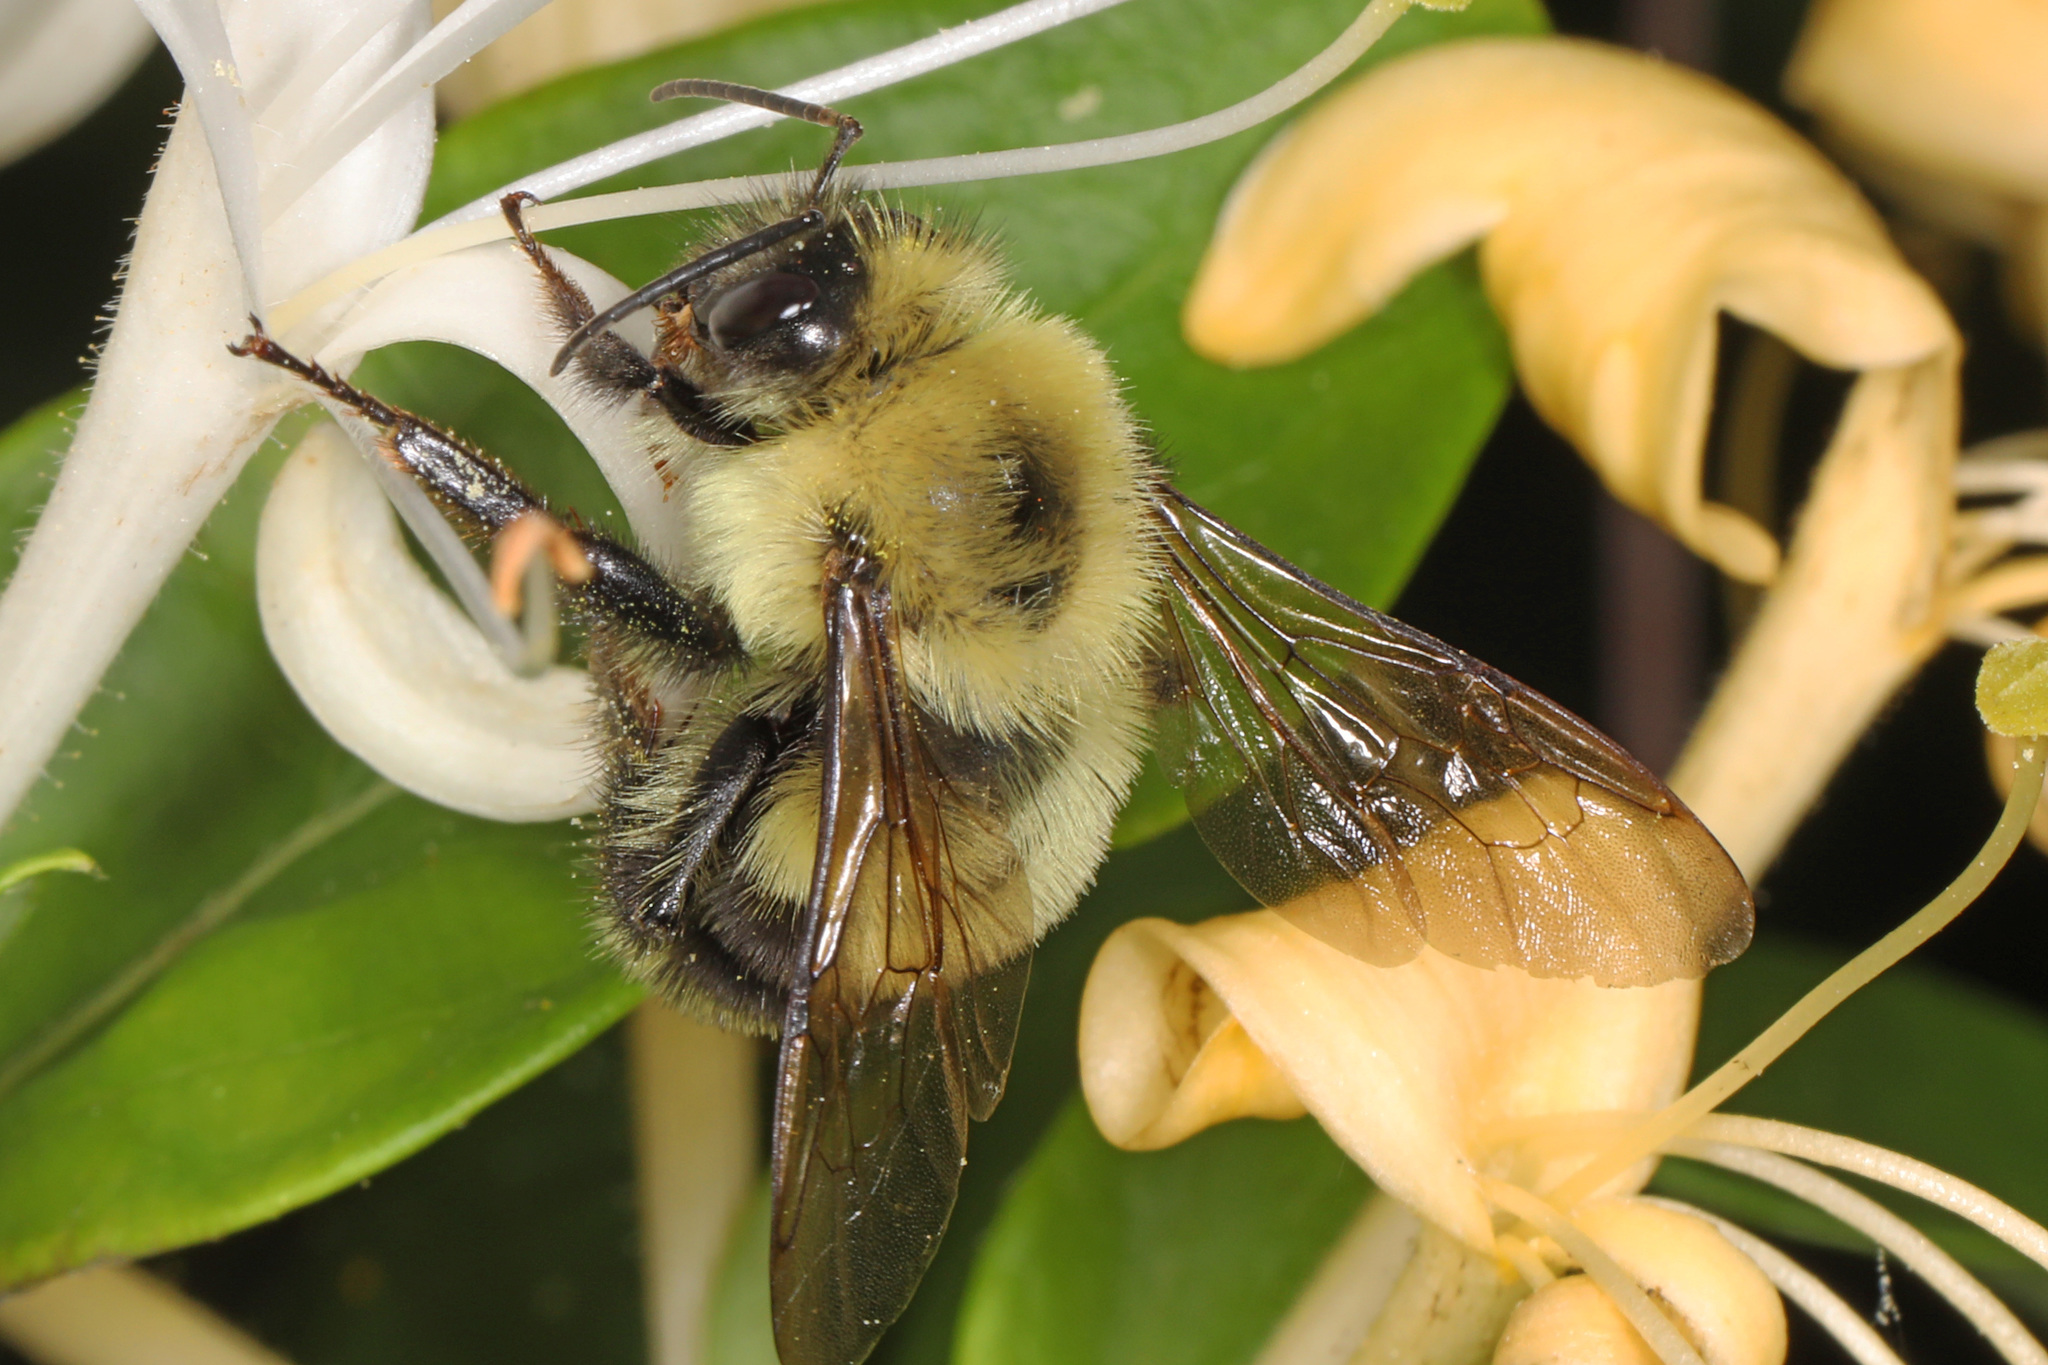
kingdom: Animalia
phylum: Arthropoda
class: Insecta
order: Hymenoptera
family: Apidae
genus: Bombus
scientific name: Bombus bimaculatus
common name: Two-spotted bumble bee
